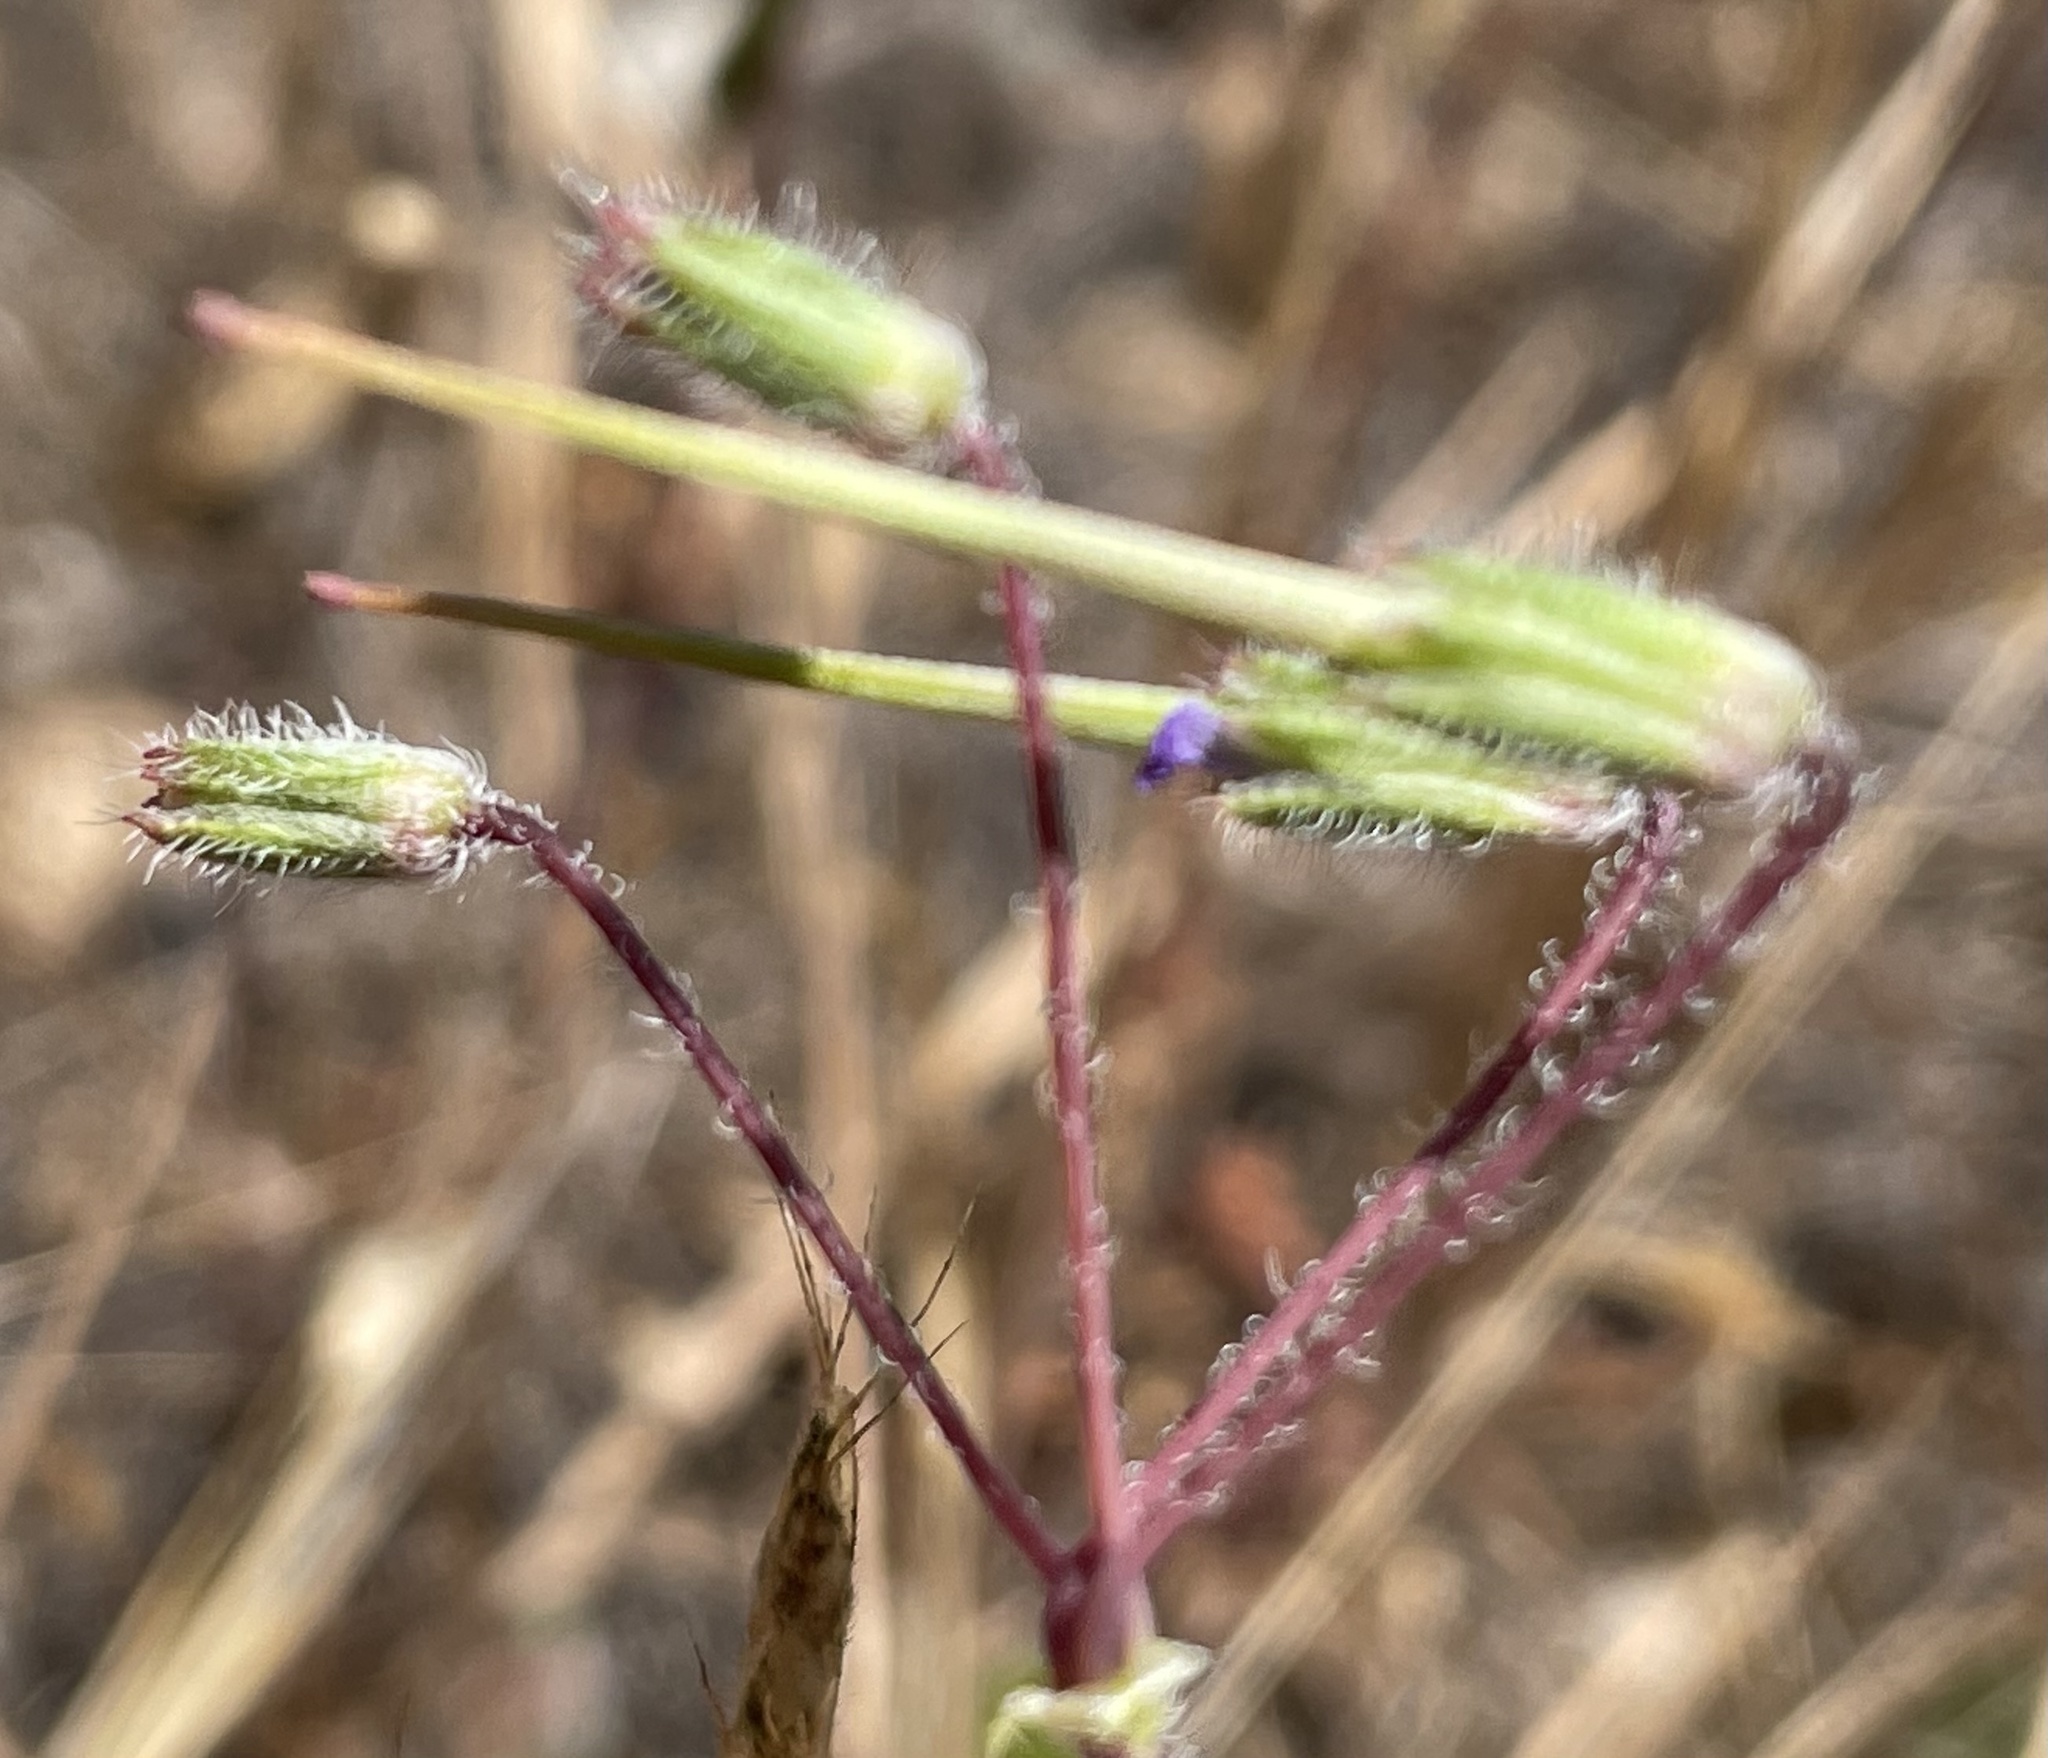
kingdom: Plantae
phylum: Tracheophyta
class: Magnoliopsida
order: Geraniales
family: Geraniaceae
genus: Erodium
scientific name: Erodium cicutarium
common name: Common stork's-bill
